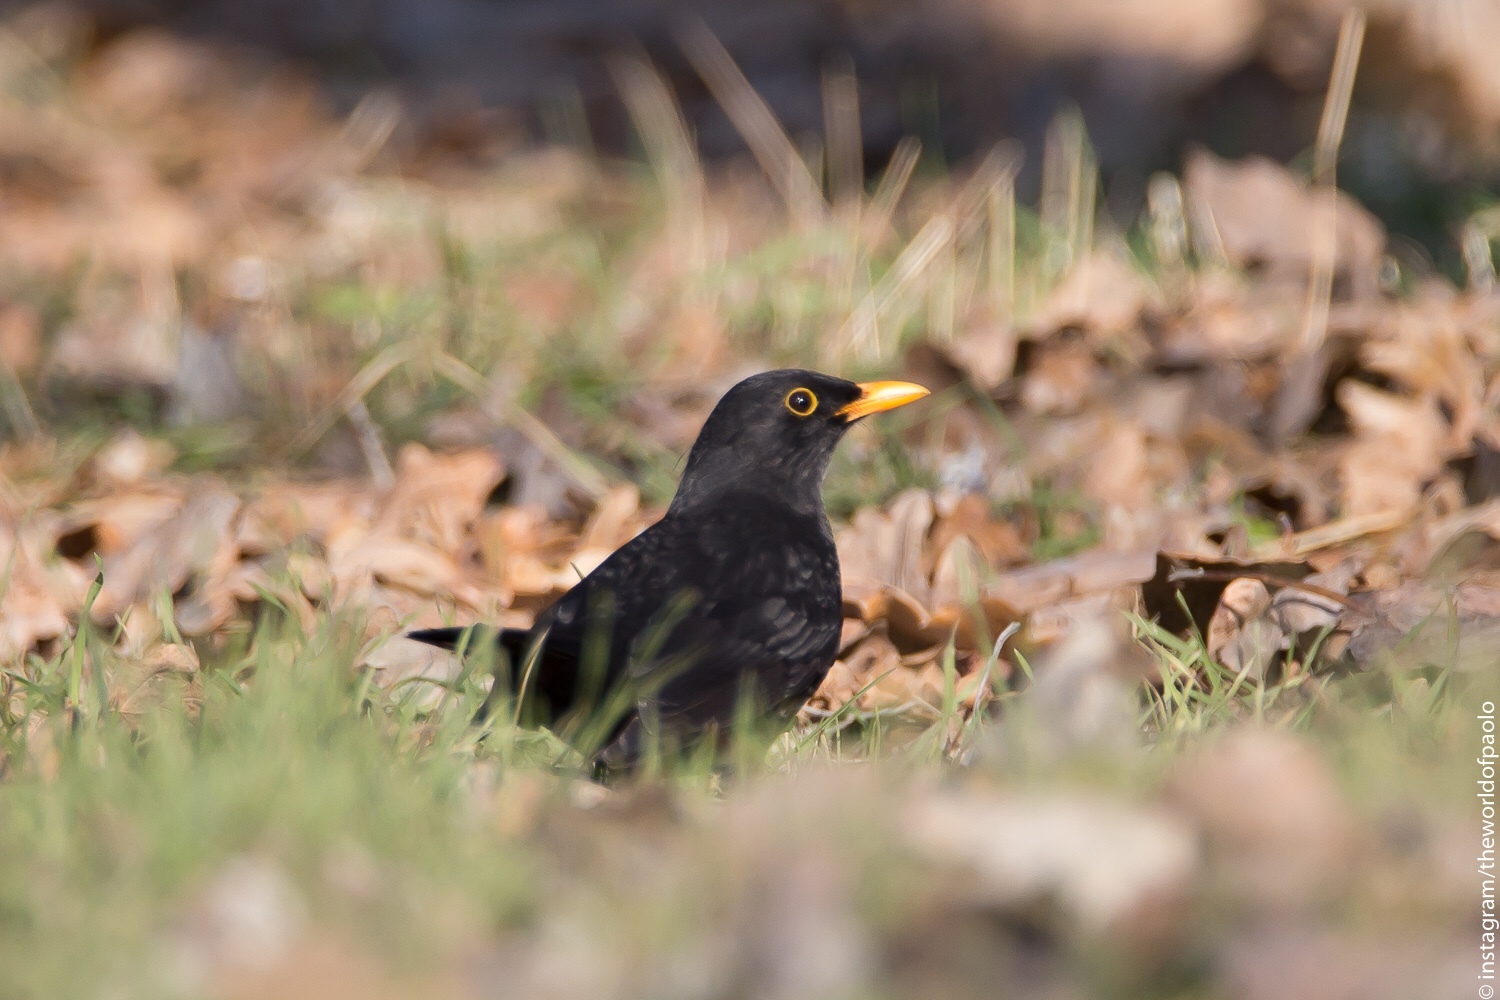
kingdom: Animalia
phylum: Chordata
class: Aves
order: Passeriformes
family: Turdidae
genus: Turdus
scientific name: Turdus merula
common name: Common blackbird
